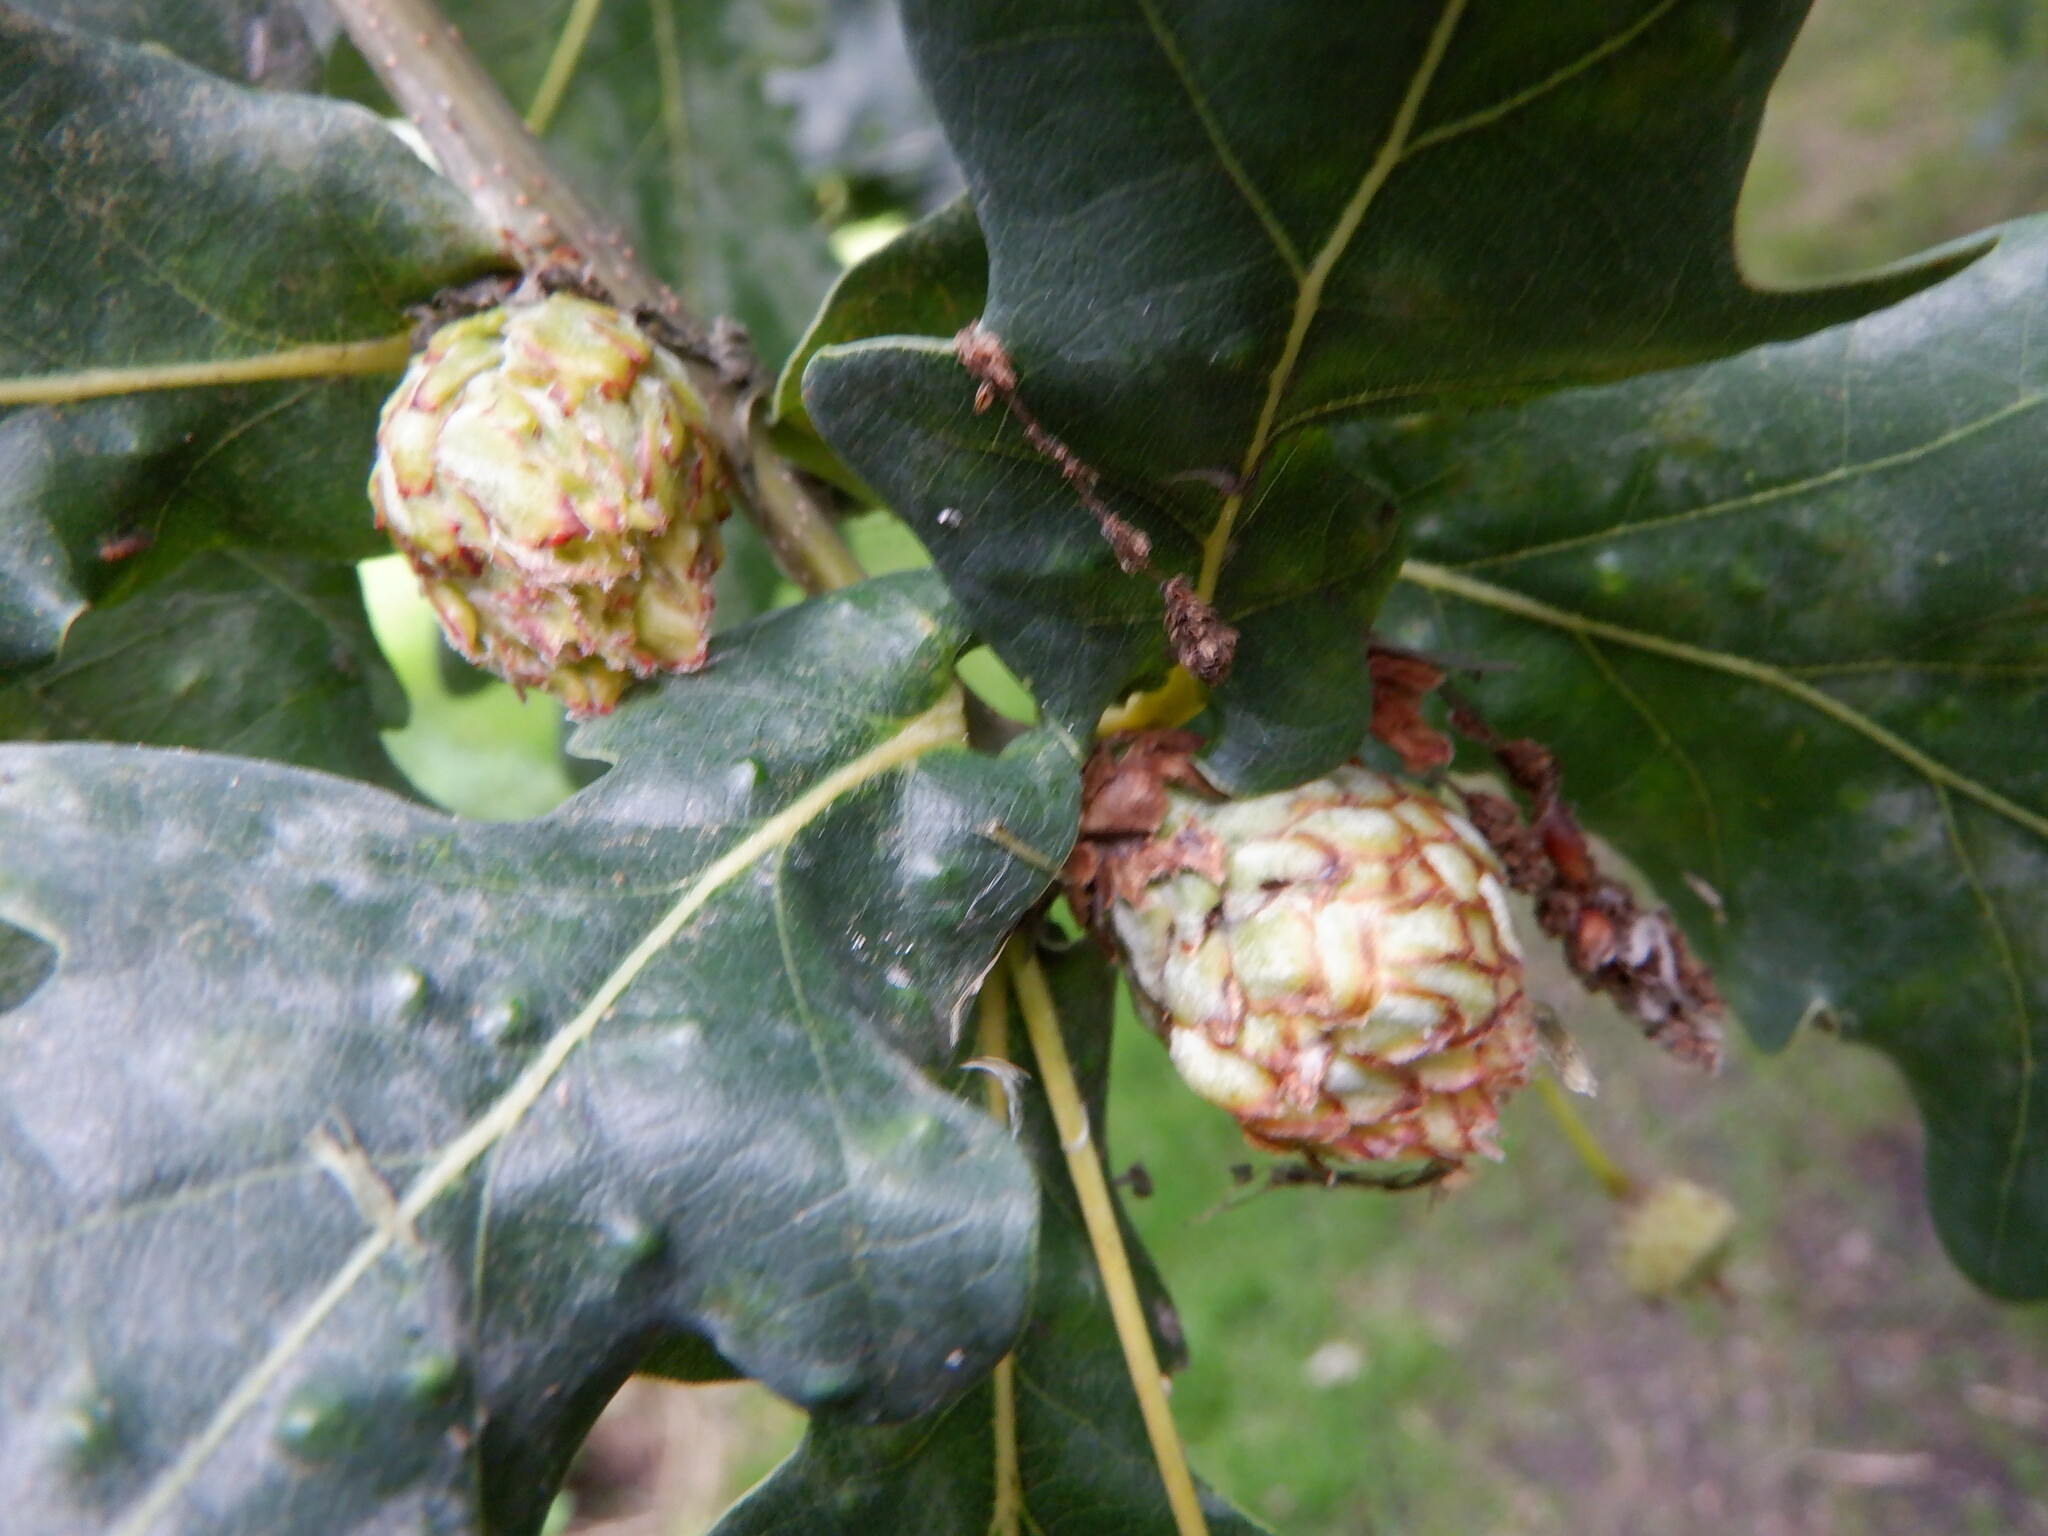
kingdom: Animalia
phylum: Arthropoda
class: Insecta
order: Hymenoptera
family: Cynipidae
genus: Andricus
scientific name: Andricus foecundatrix
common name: Artichoke gall
